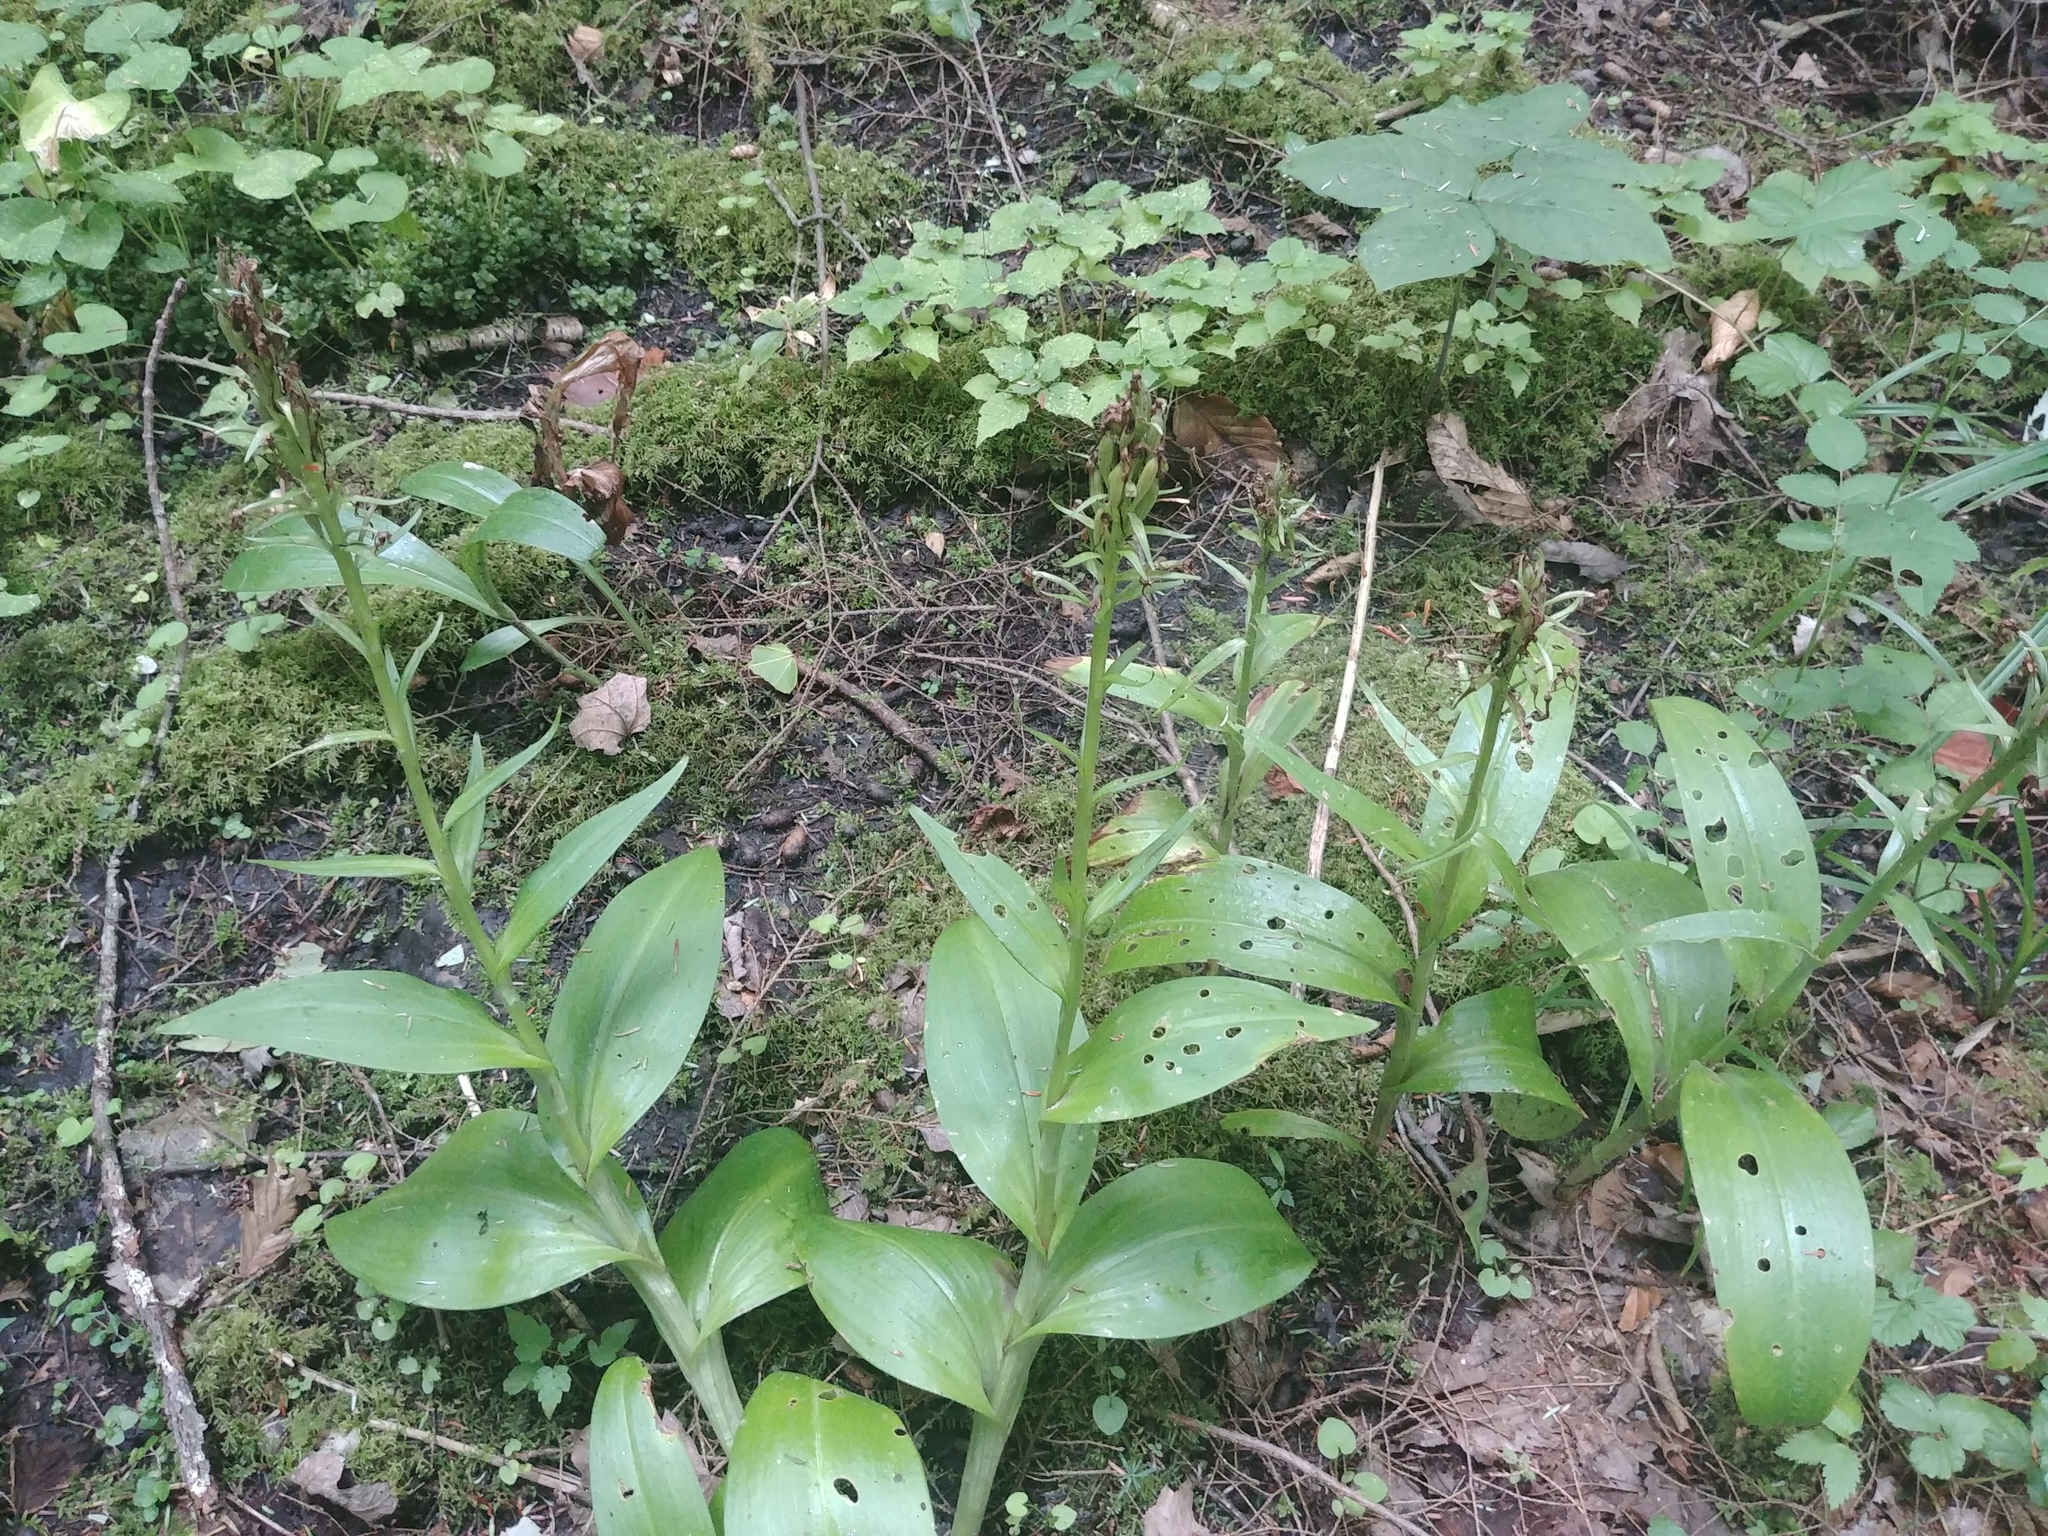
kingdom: Plantae
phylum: Tracheophyta
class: Liliopsida
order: Asparagales
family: Orchidaceae
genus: Platanthera
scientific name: Platanthera grandiflora
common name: Greater purple fringed orchid
